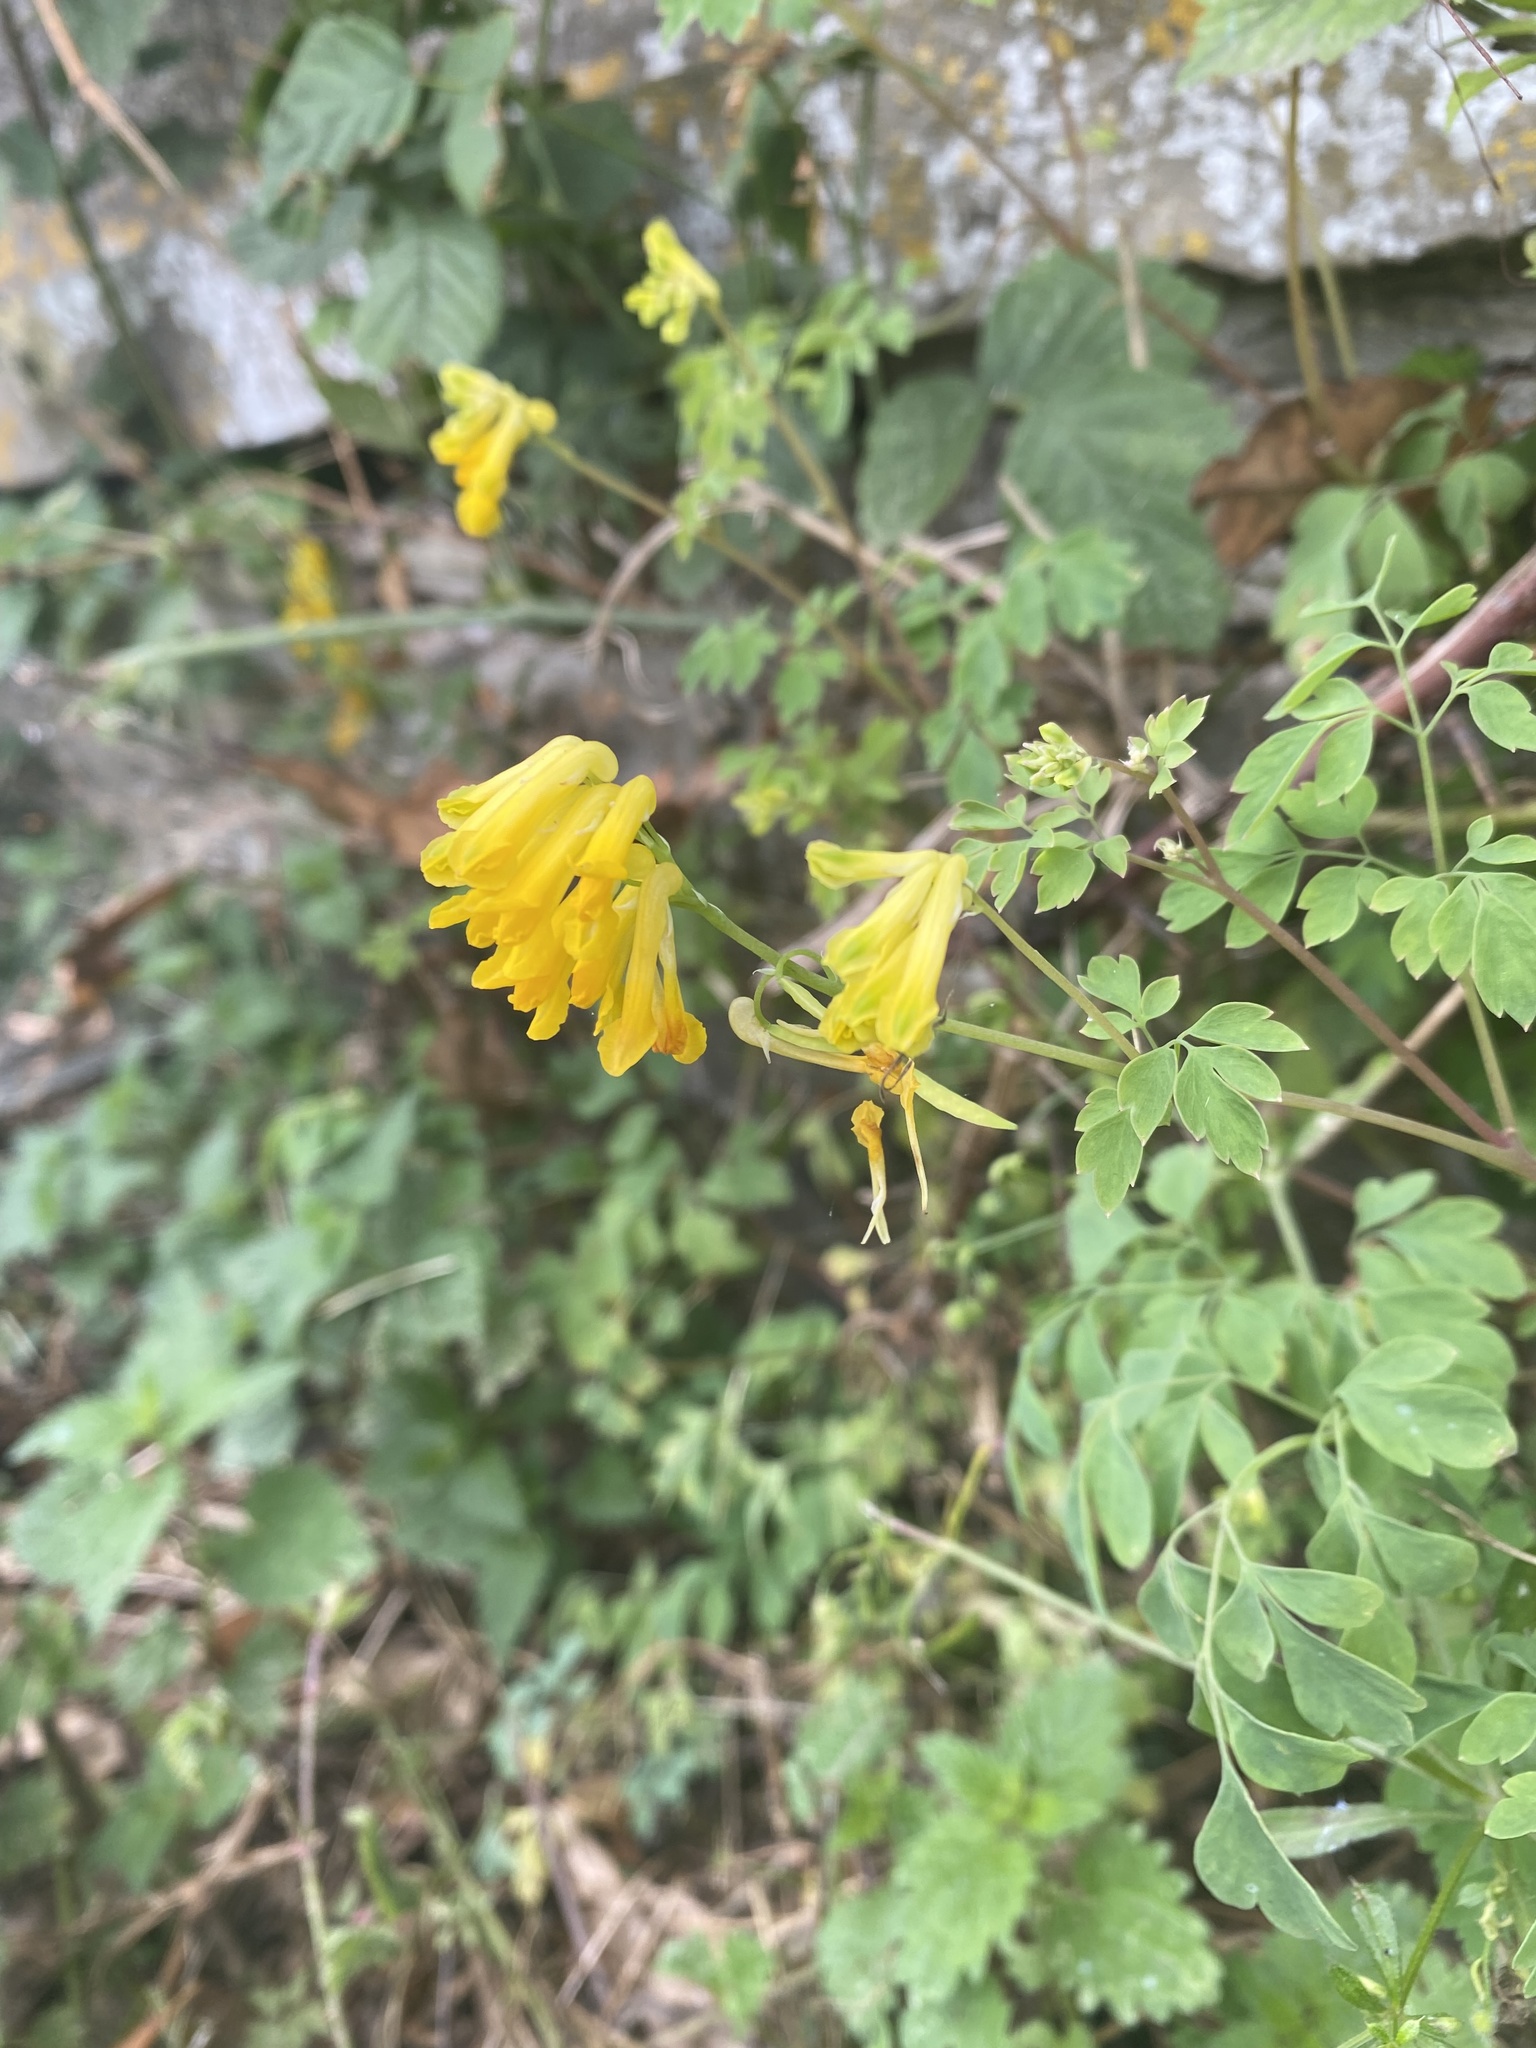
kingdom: Plantae
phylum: Tracheophyta
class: Magnoliopsida
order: Ranunculales
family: Papaveraceae
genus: Pseudofumaria
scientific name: Pseudofumaria lutea
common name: Yellow corydalis
